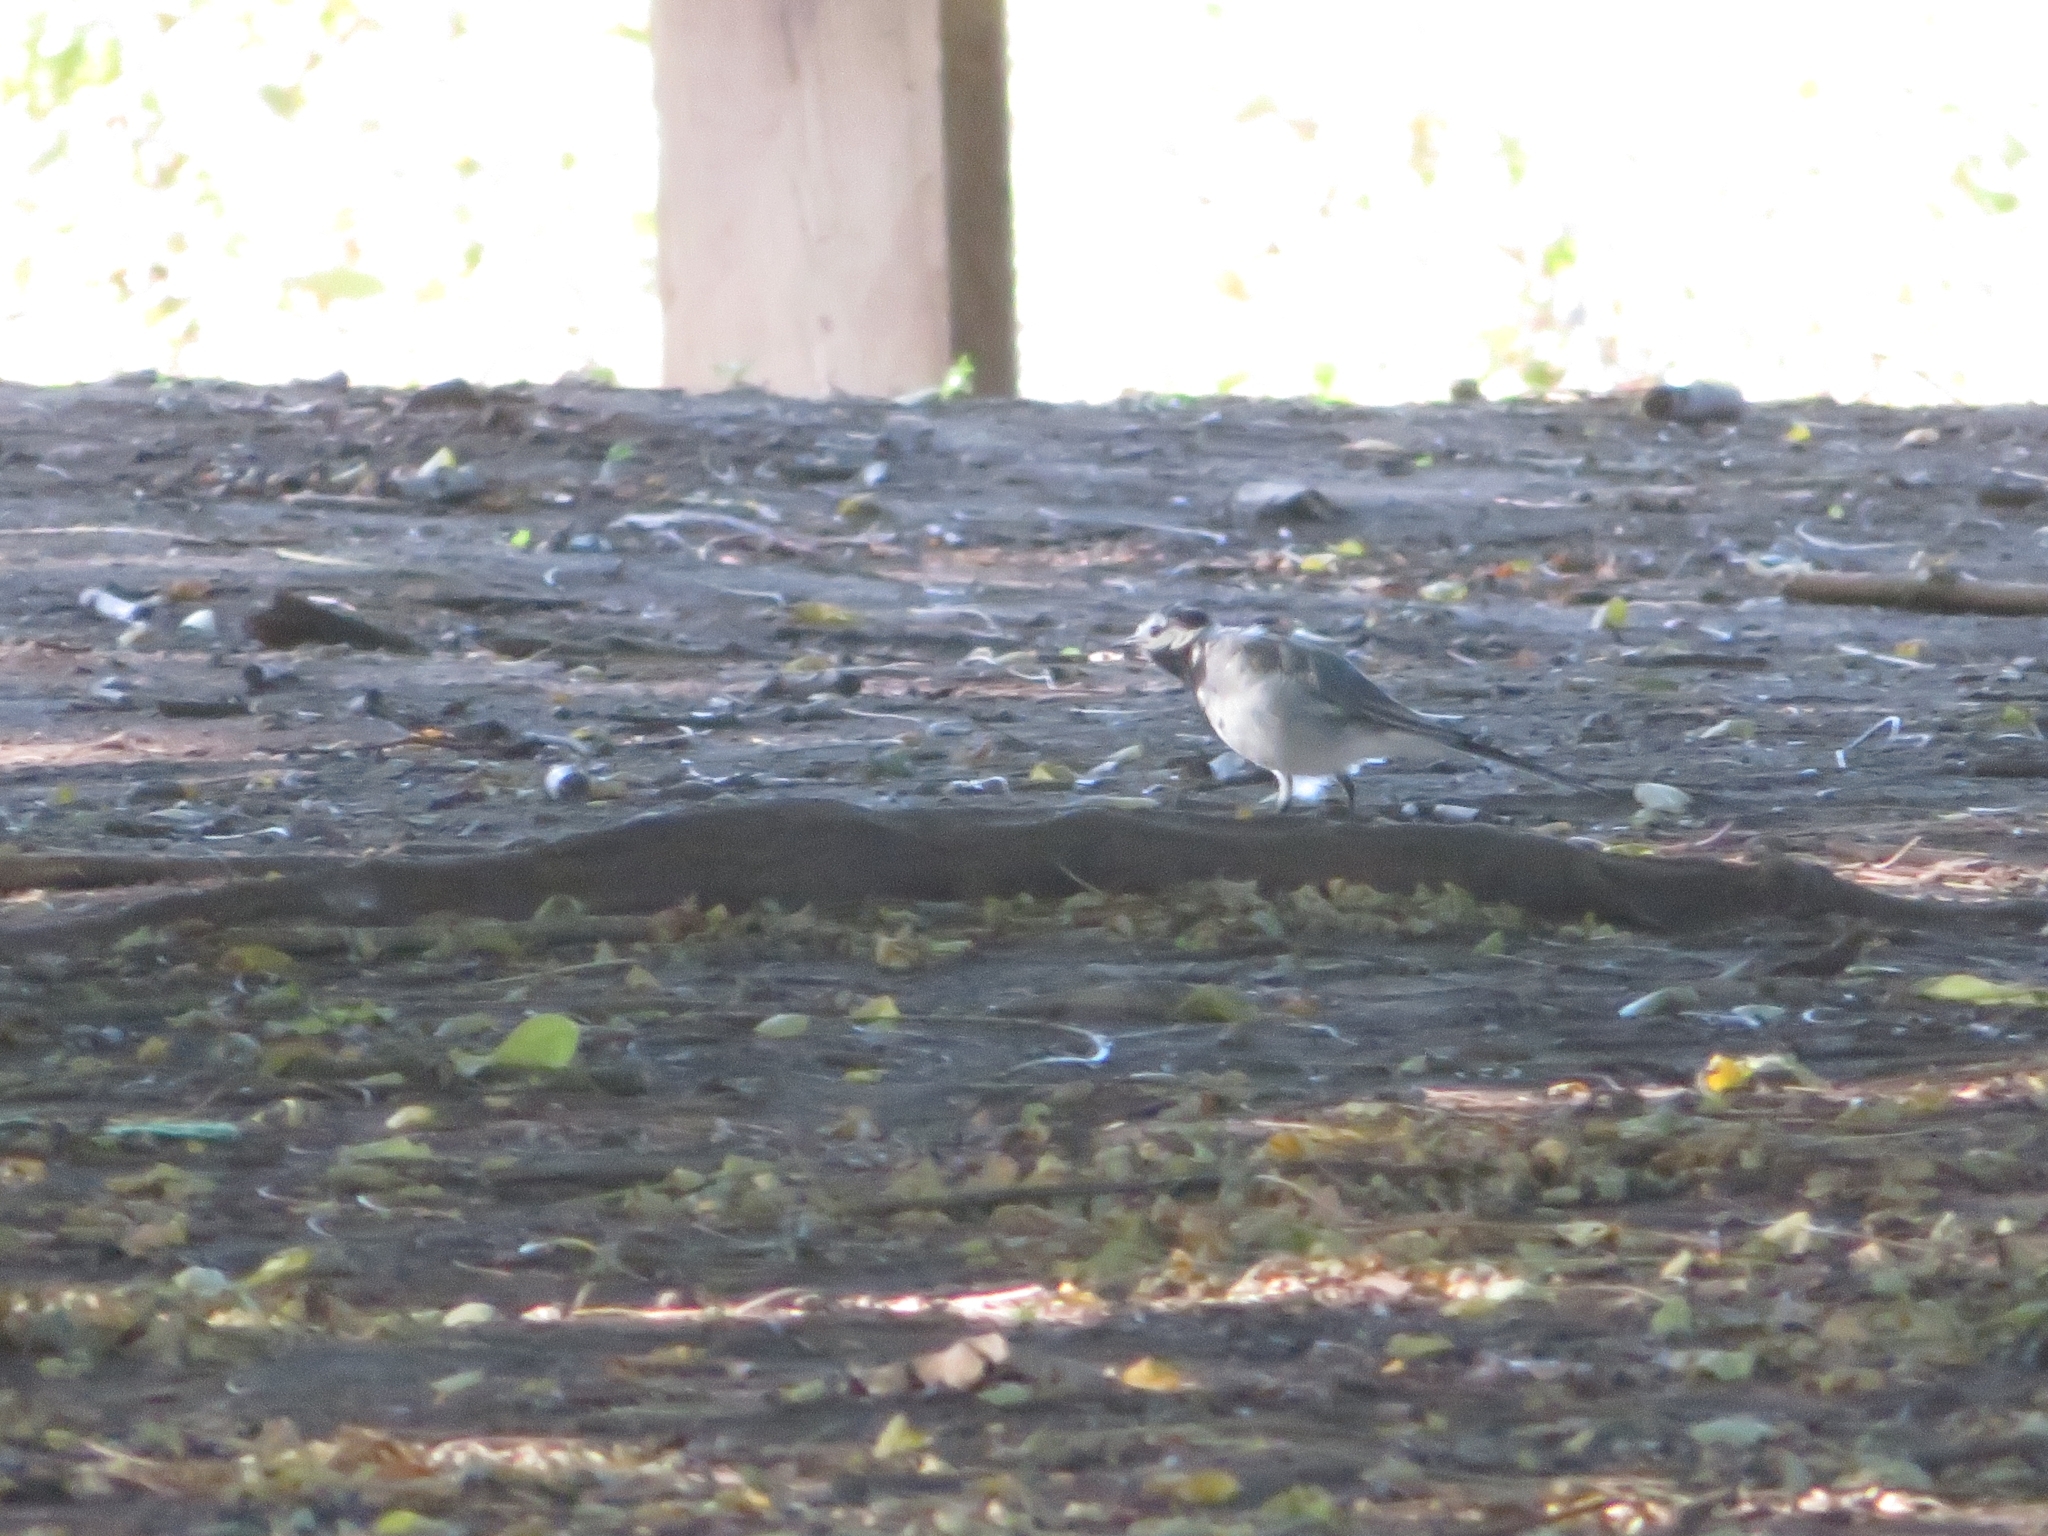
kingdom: Animalia
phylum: Chordata
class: Aves
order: Passeriformes
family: Motacillidae
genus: Motacilla
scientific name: Motacilla alba
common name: White wagtail
